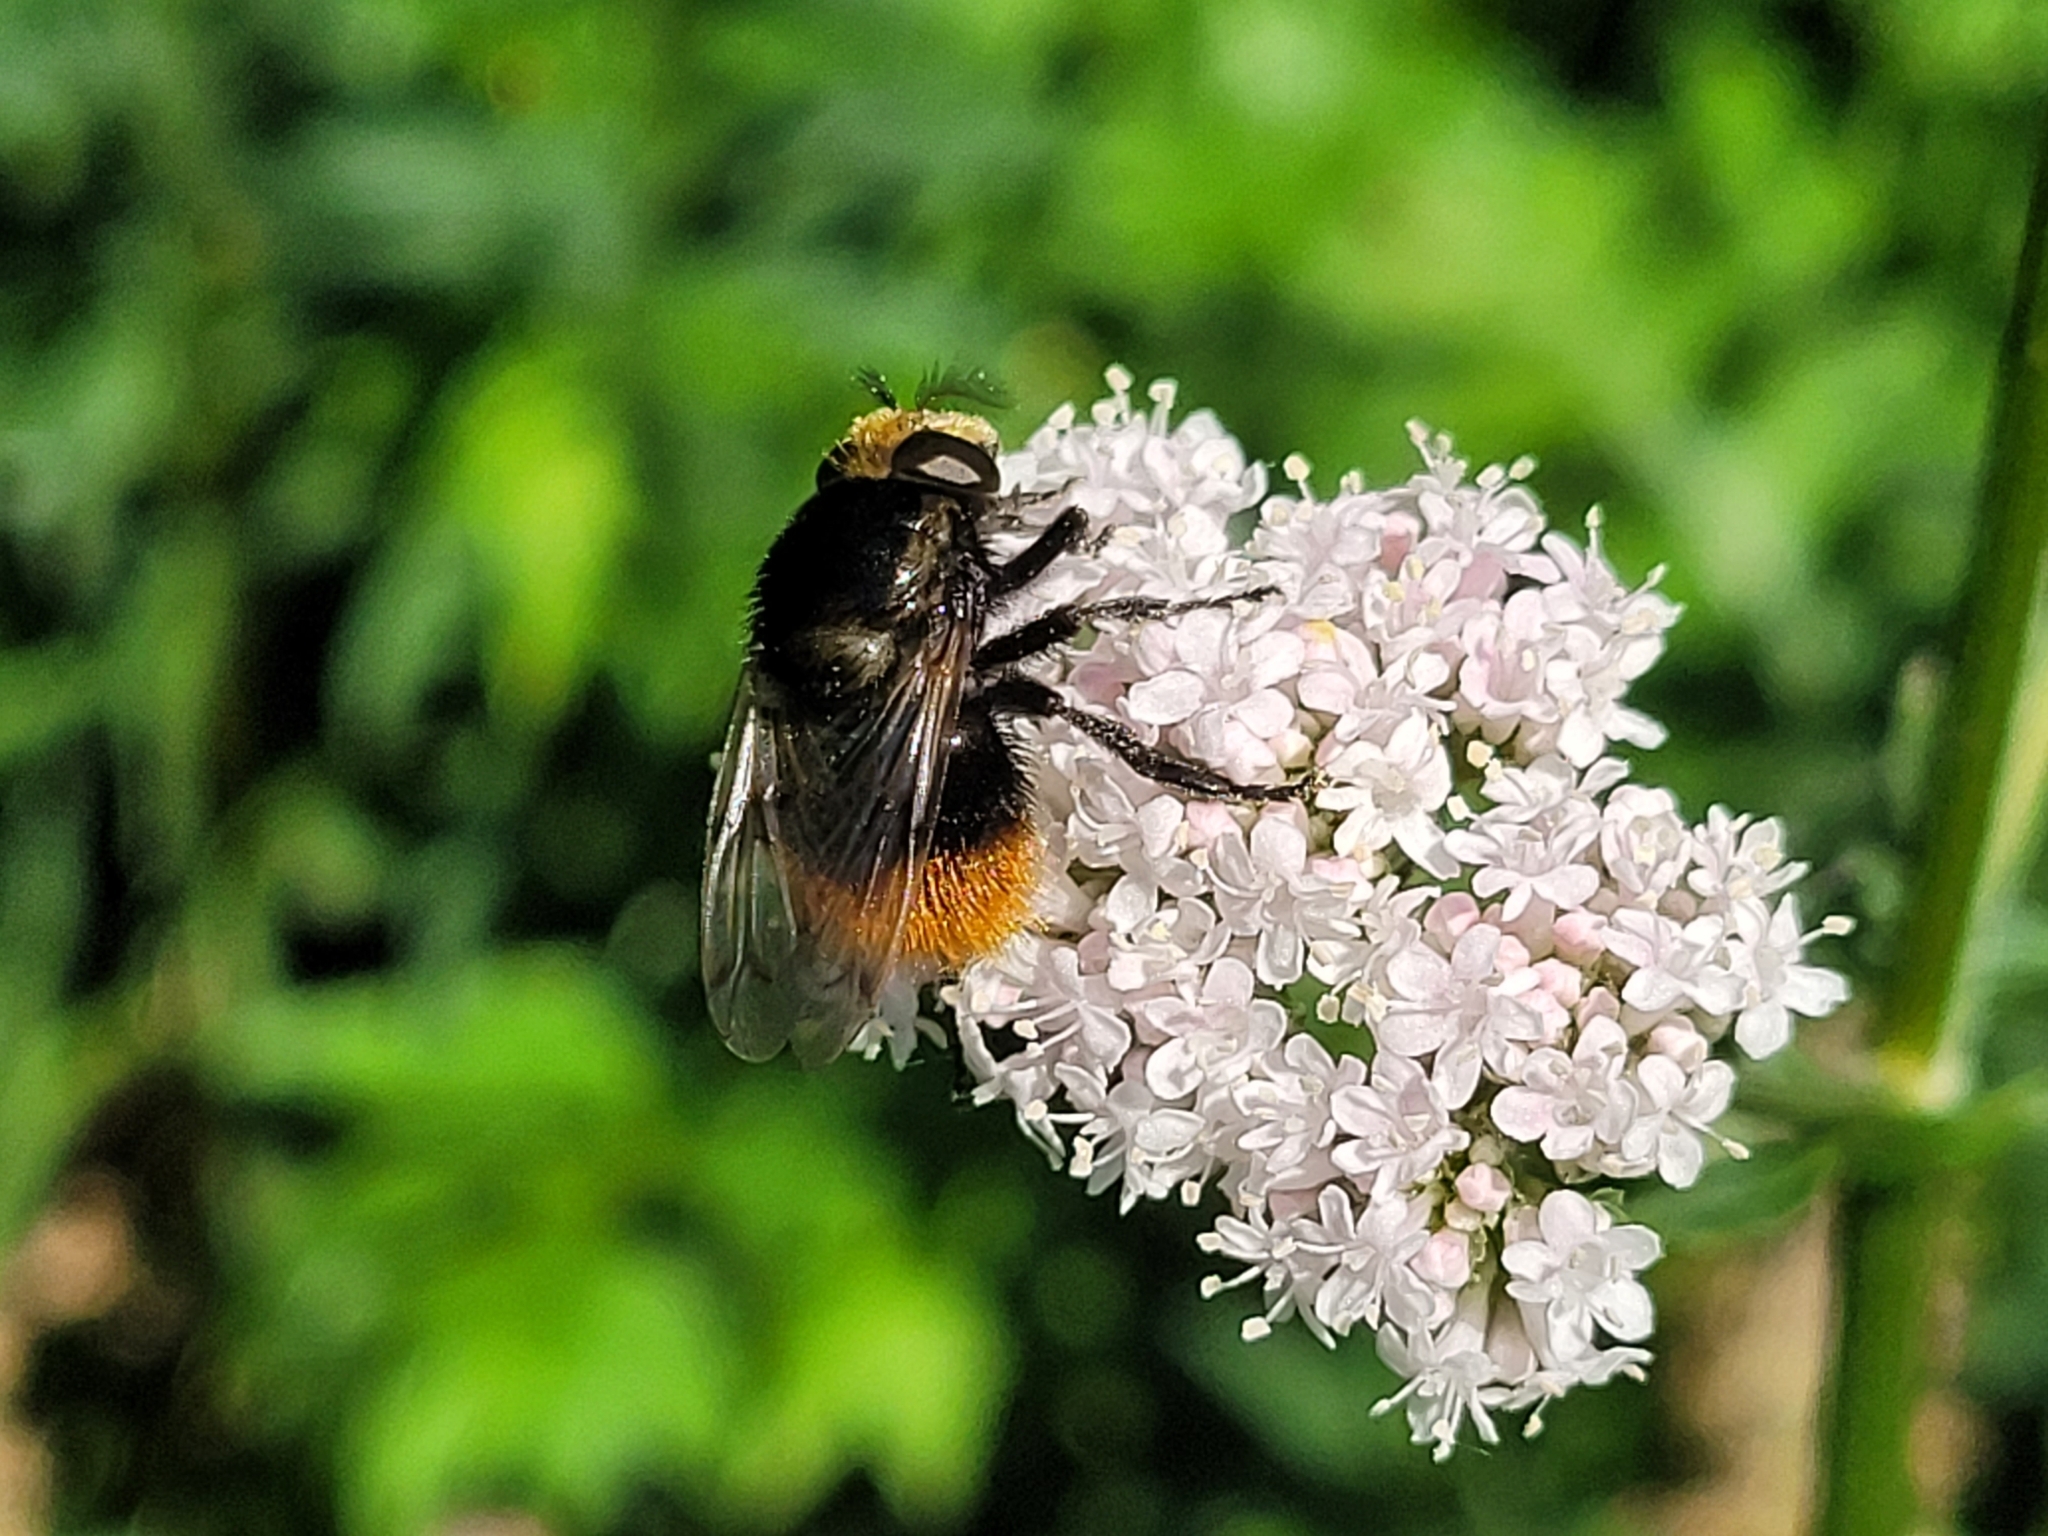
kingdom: Animalia
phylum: Arthropoda
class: Insecta
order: Diptera
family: Syrphidae
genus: Volucella
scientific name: Volucella bombylans
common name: Bumble bee hover fly
